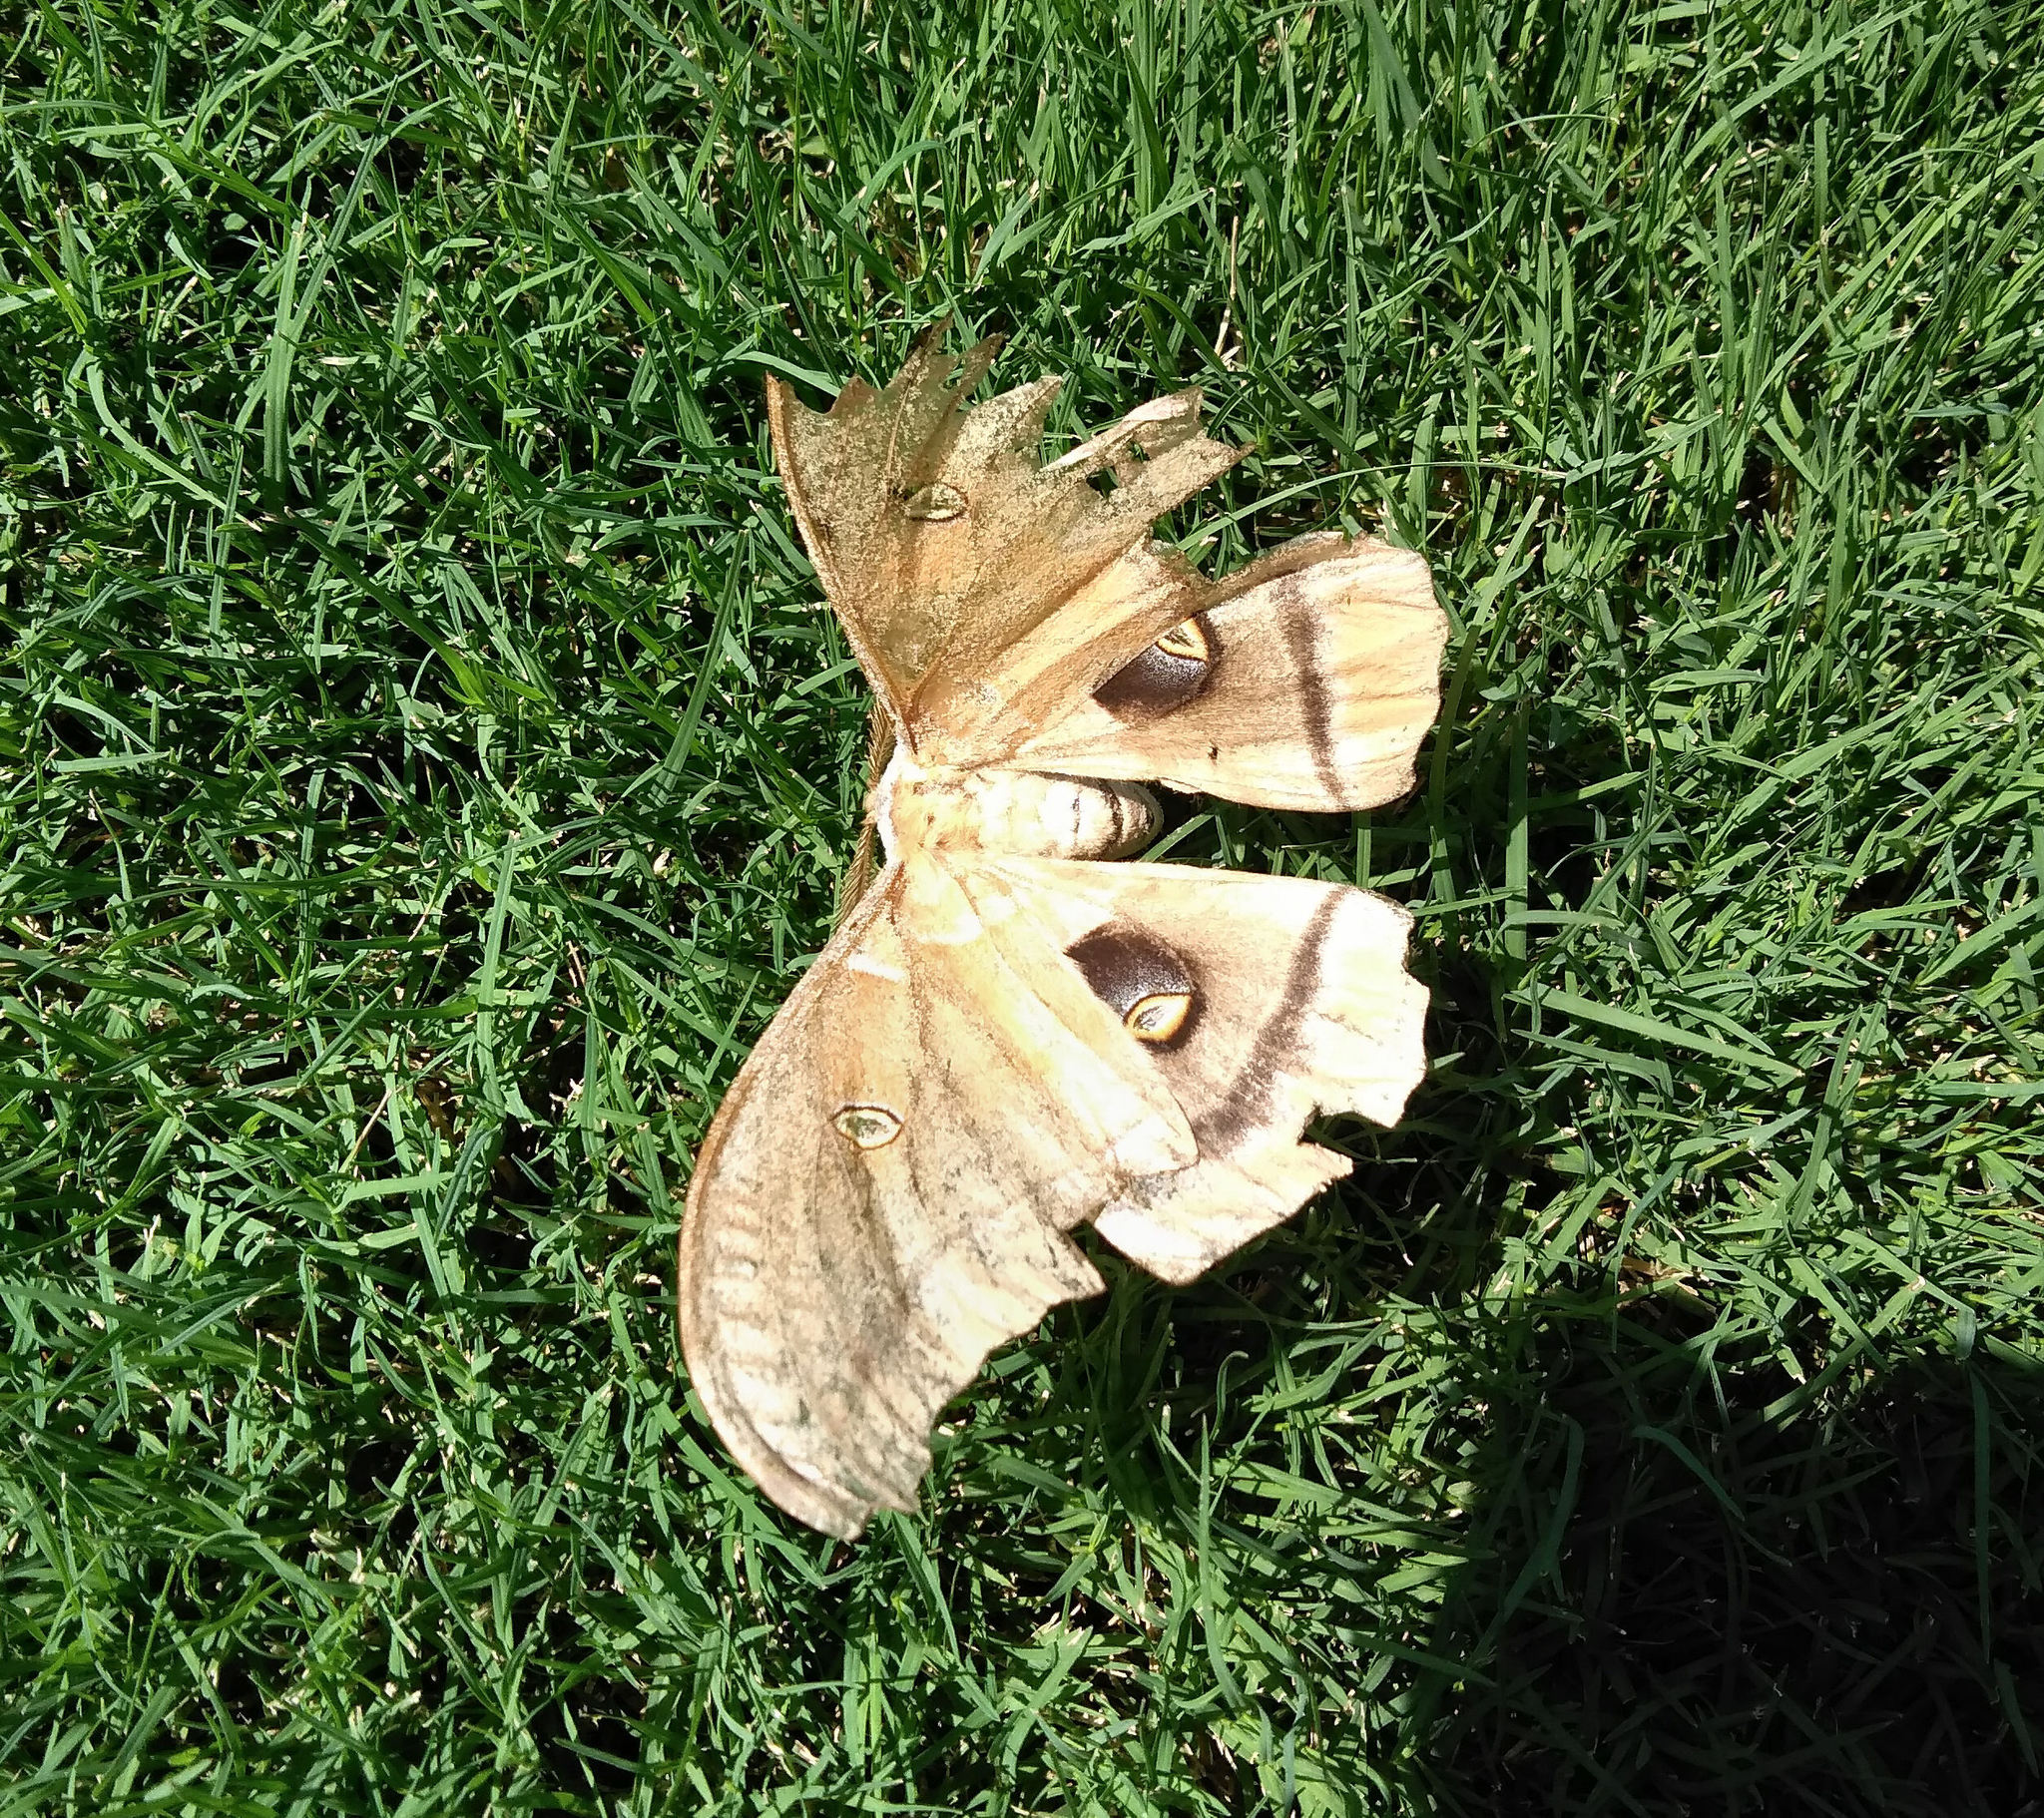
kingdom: Animalia
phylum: Arthropoda
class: Insecta
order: Lepidoptera
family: Saturniidae
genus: Antheraea
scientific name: Antheraea polyphemus
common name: Polyphemus moth
